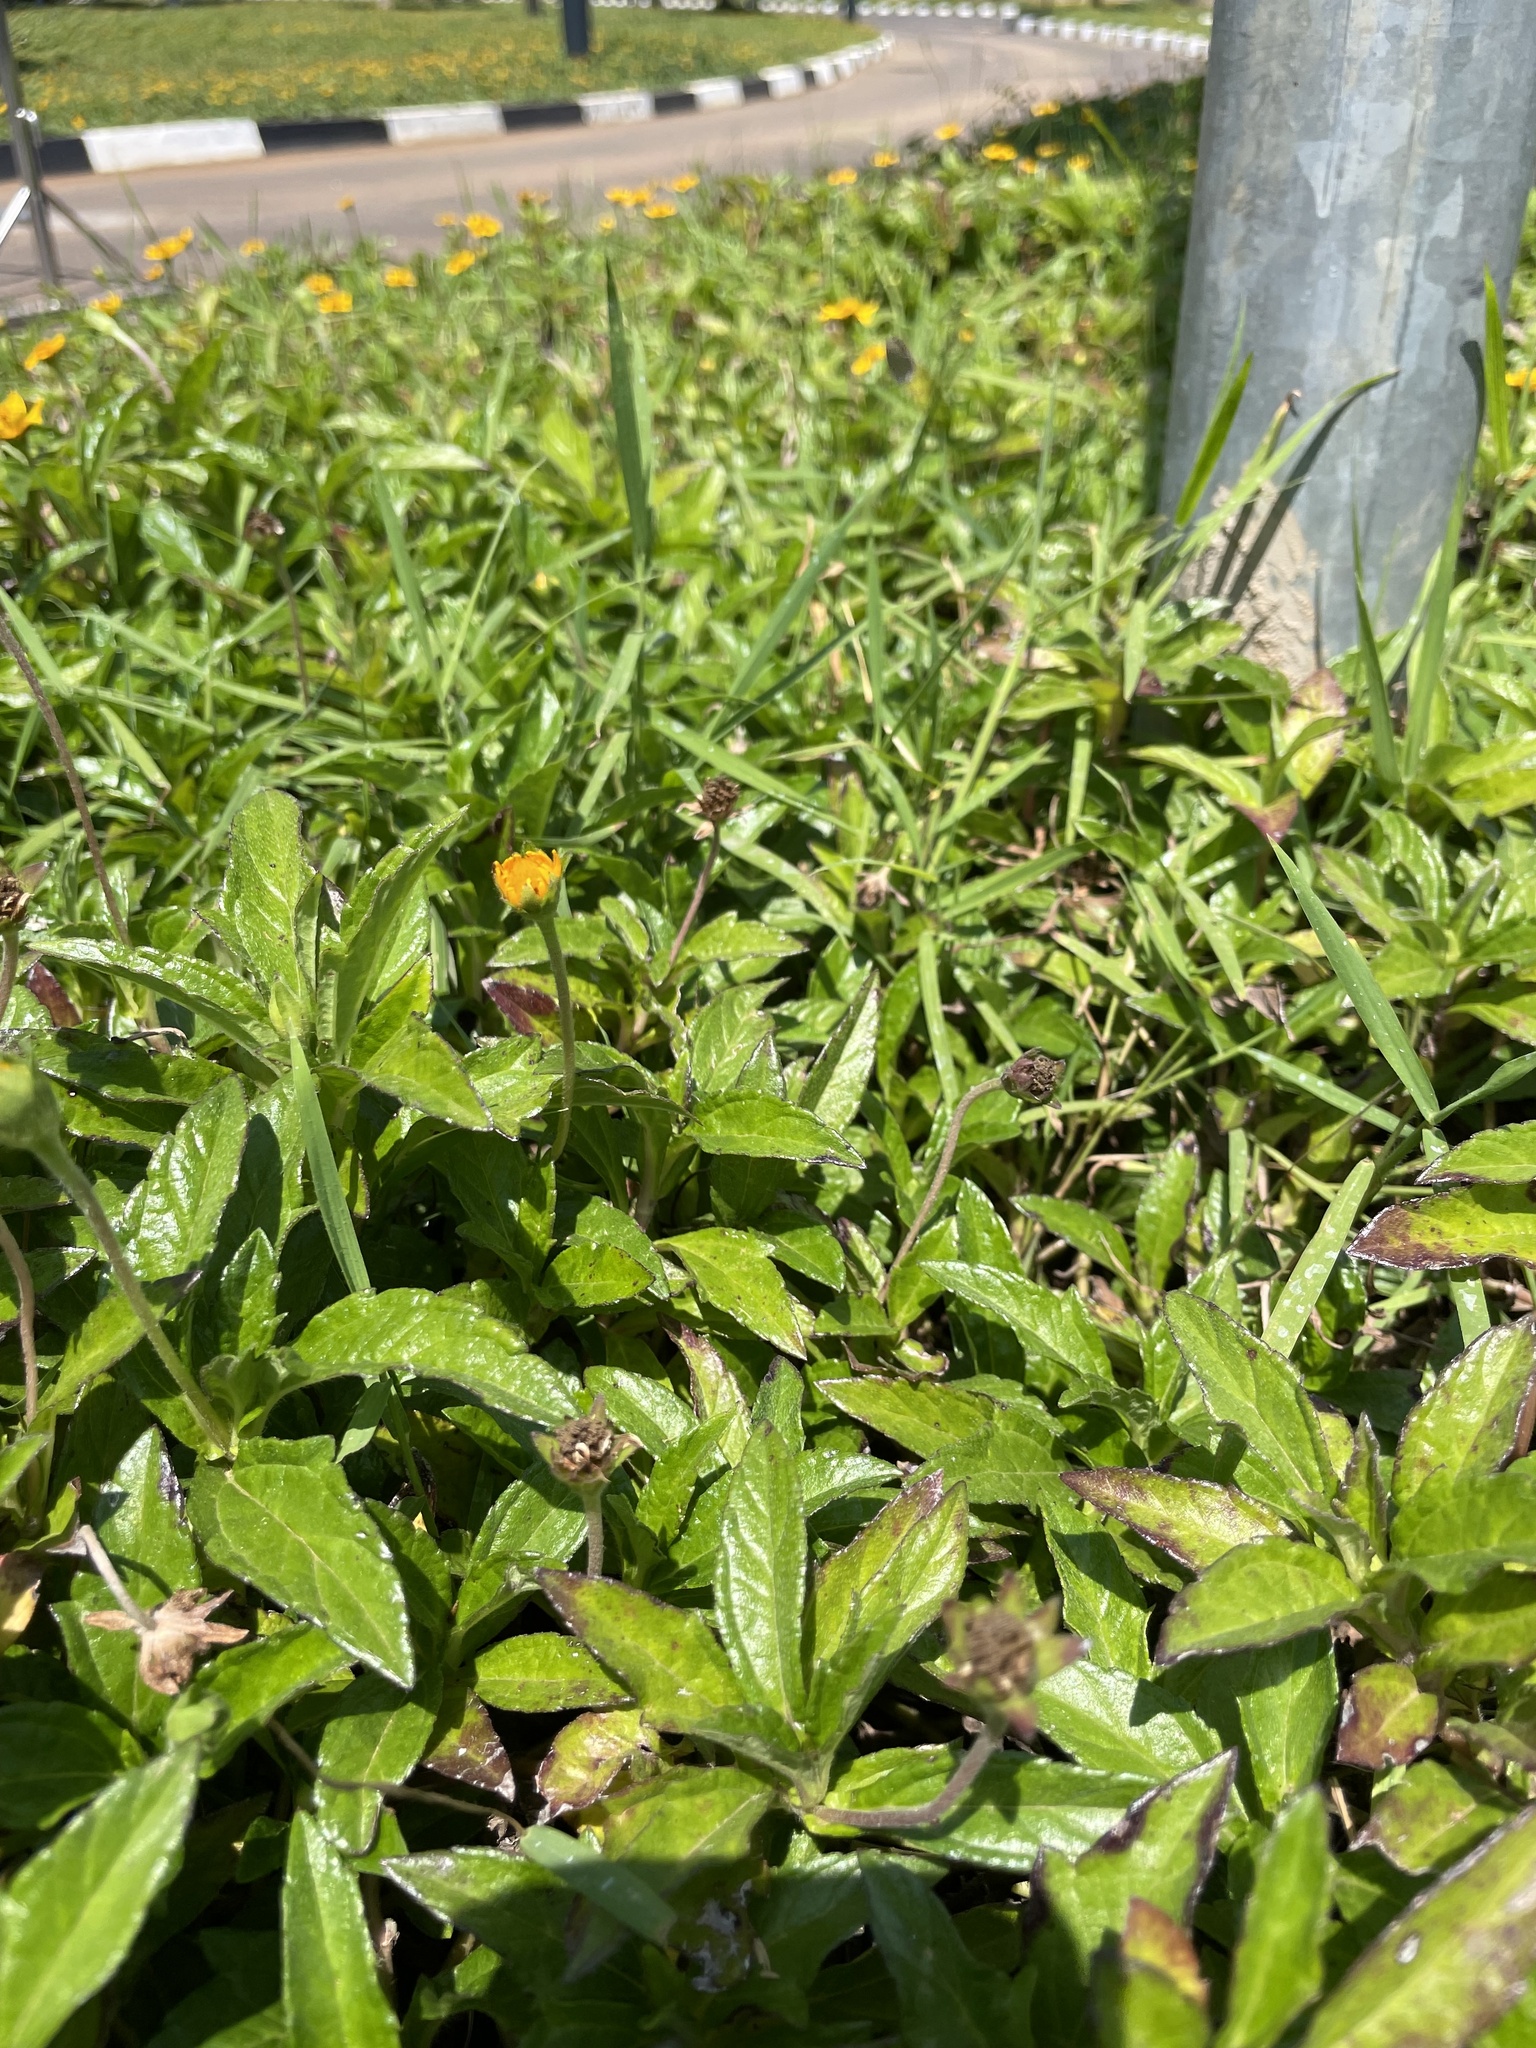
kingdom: Plantae
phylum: Tracheophyta
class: Magnoliopsida
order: Asterales
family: Asteraceae
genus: Sphagneticola
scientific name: Sphagneticola trilobata
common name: Bay biscayne creeping-oxeye
